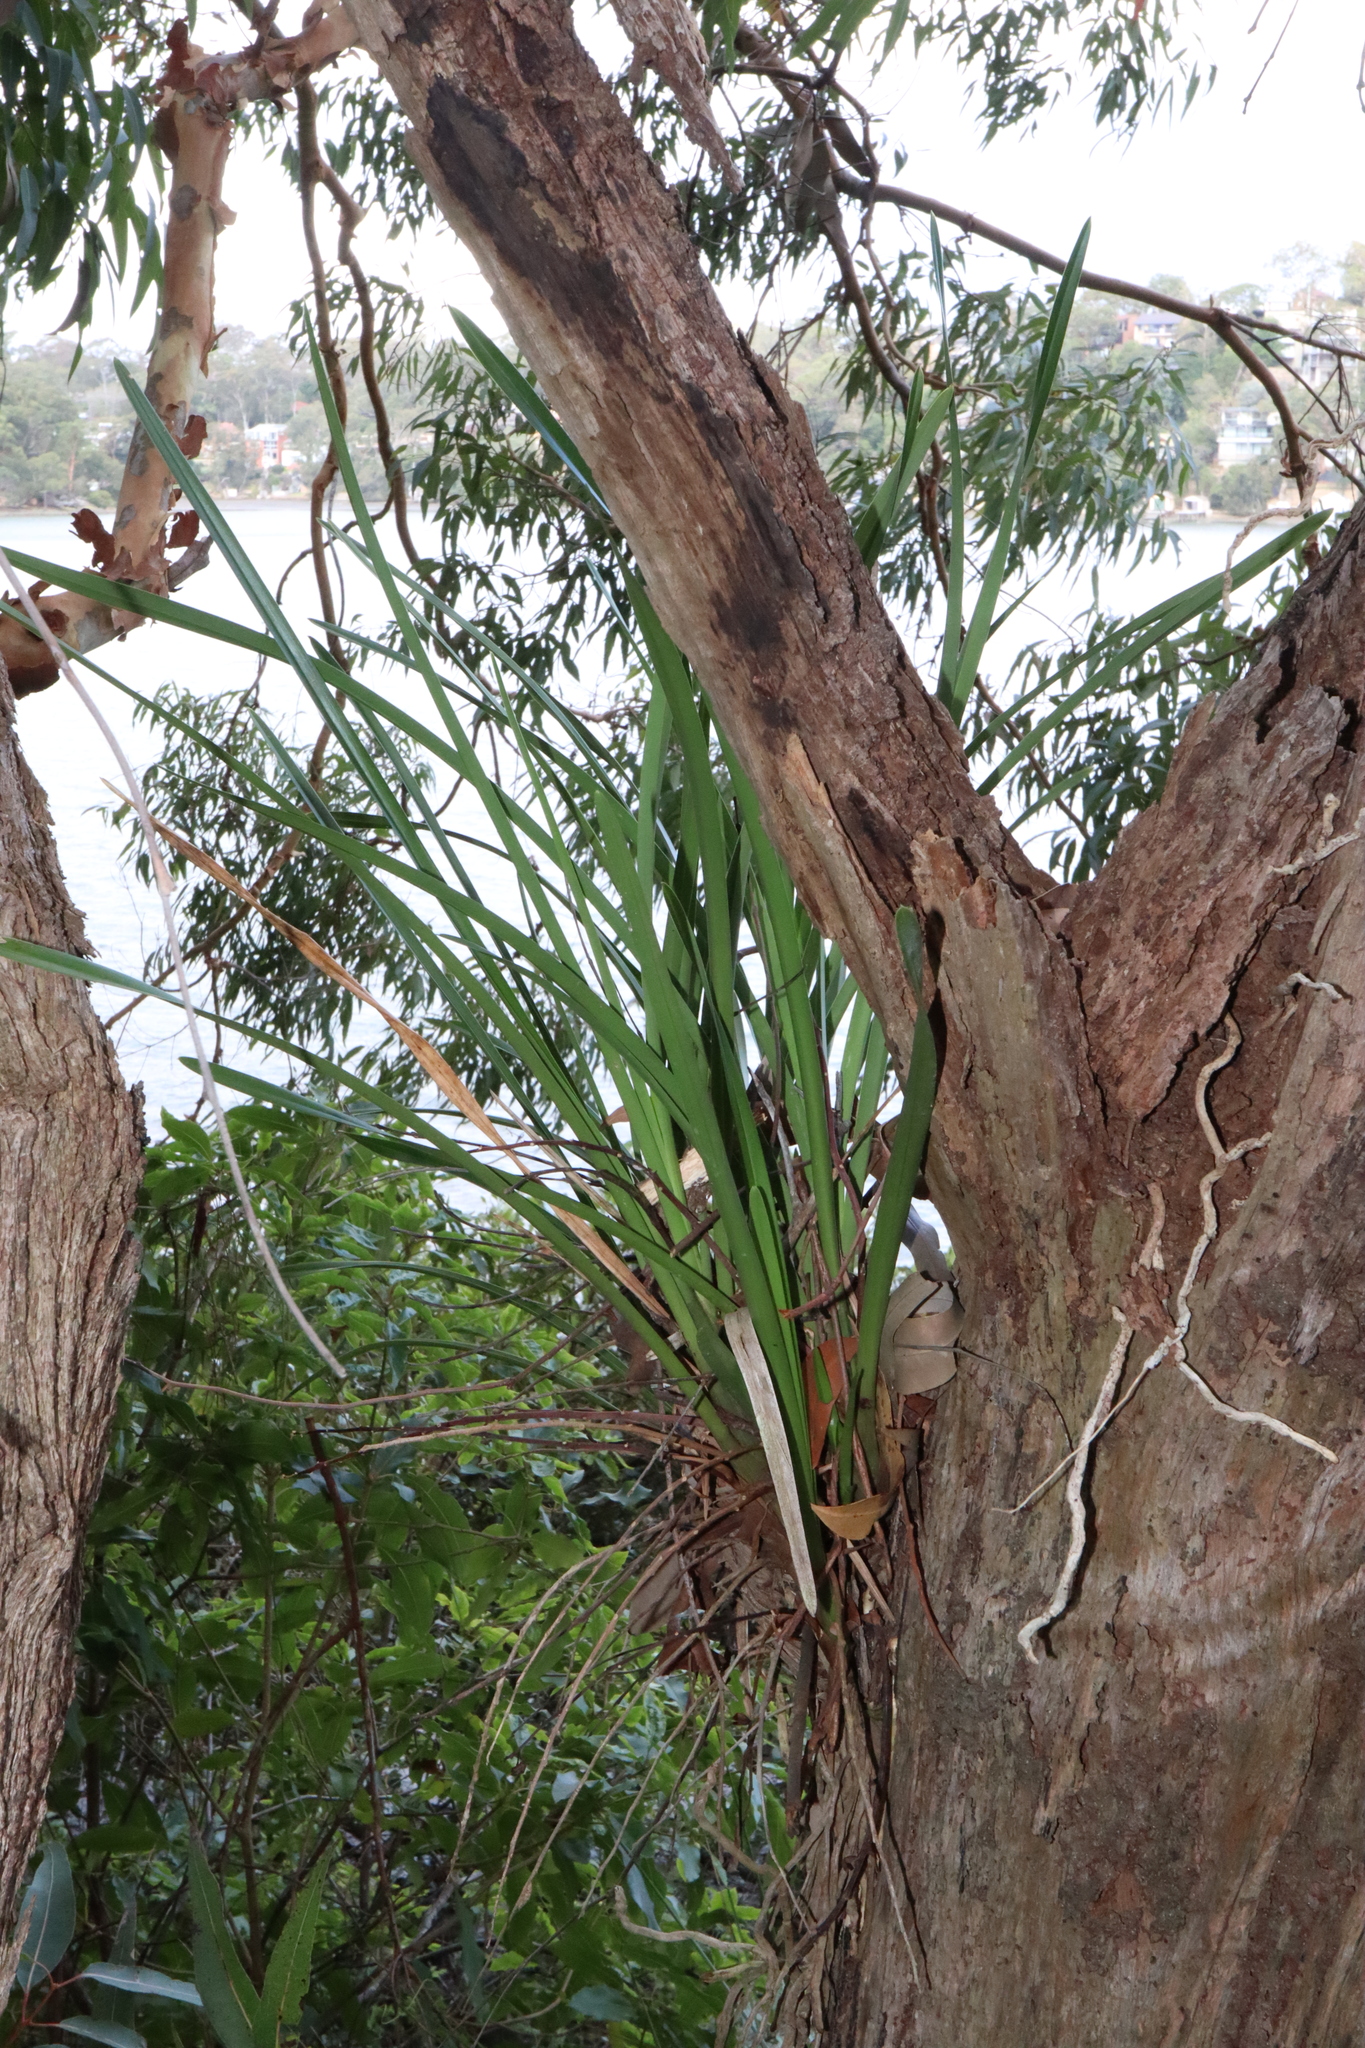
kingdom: Plantae
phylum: Tracheophyta
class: Liliopsida
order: Asparagales
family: Orchidaceae
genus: Cymbidium
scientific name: Cymbidium suave
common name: Snake orchid
